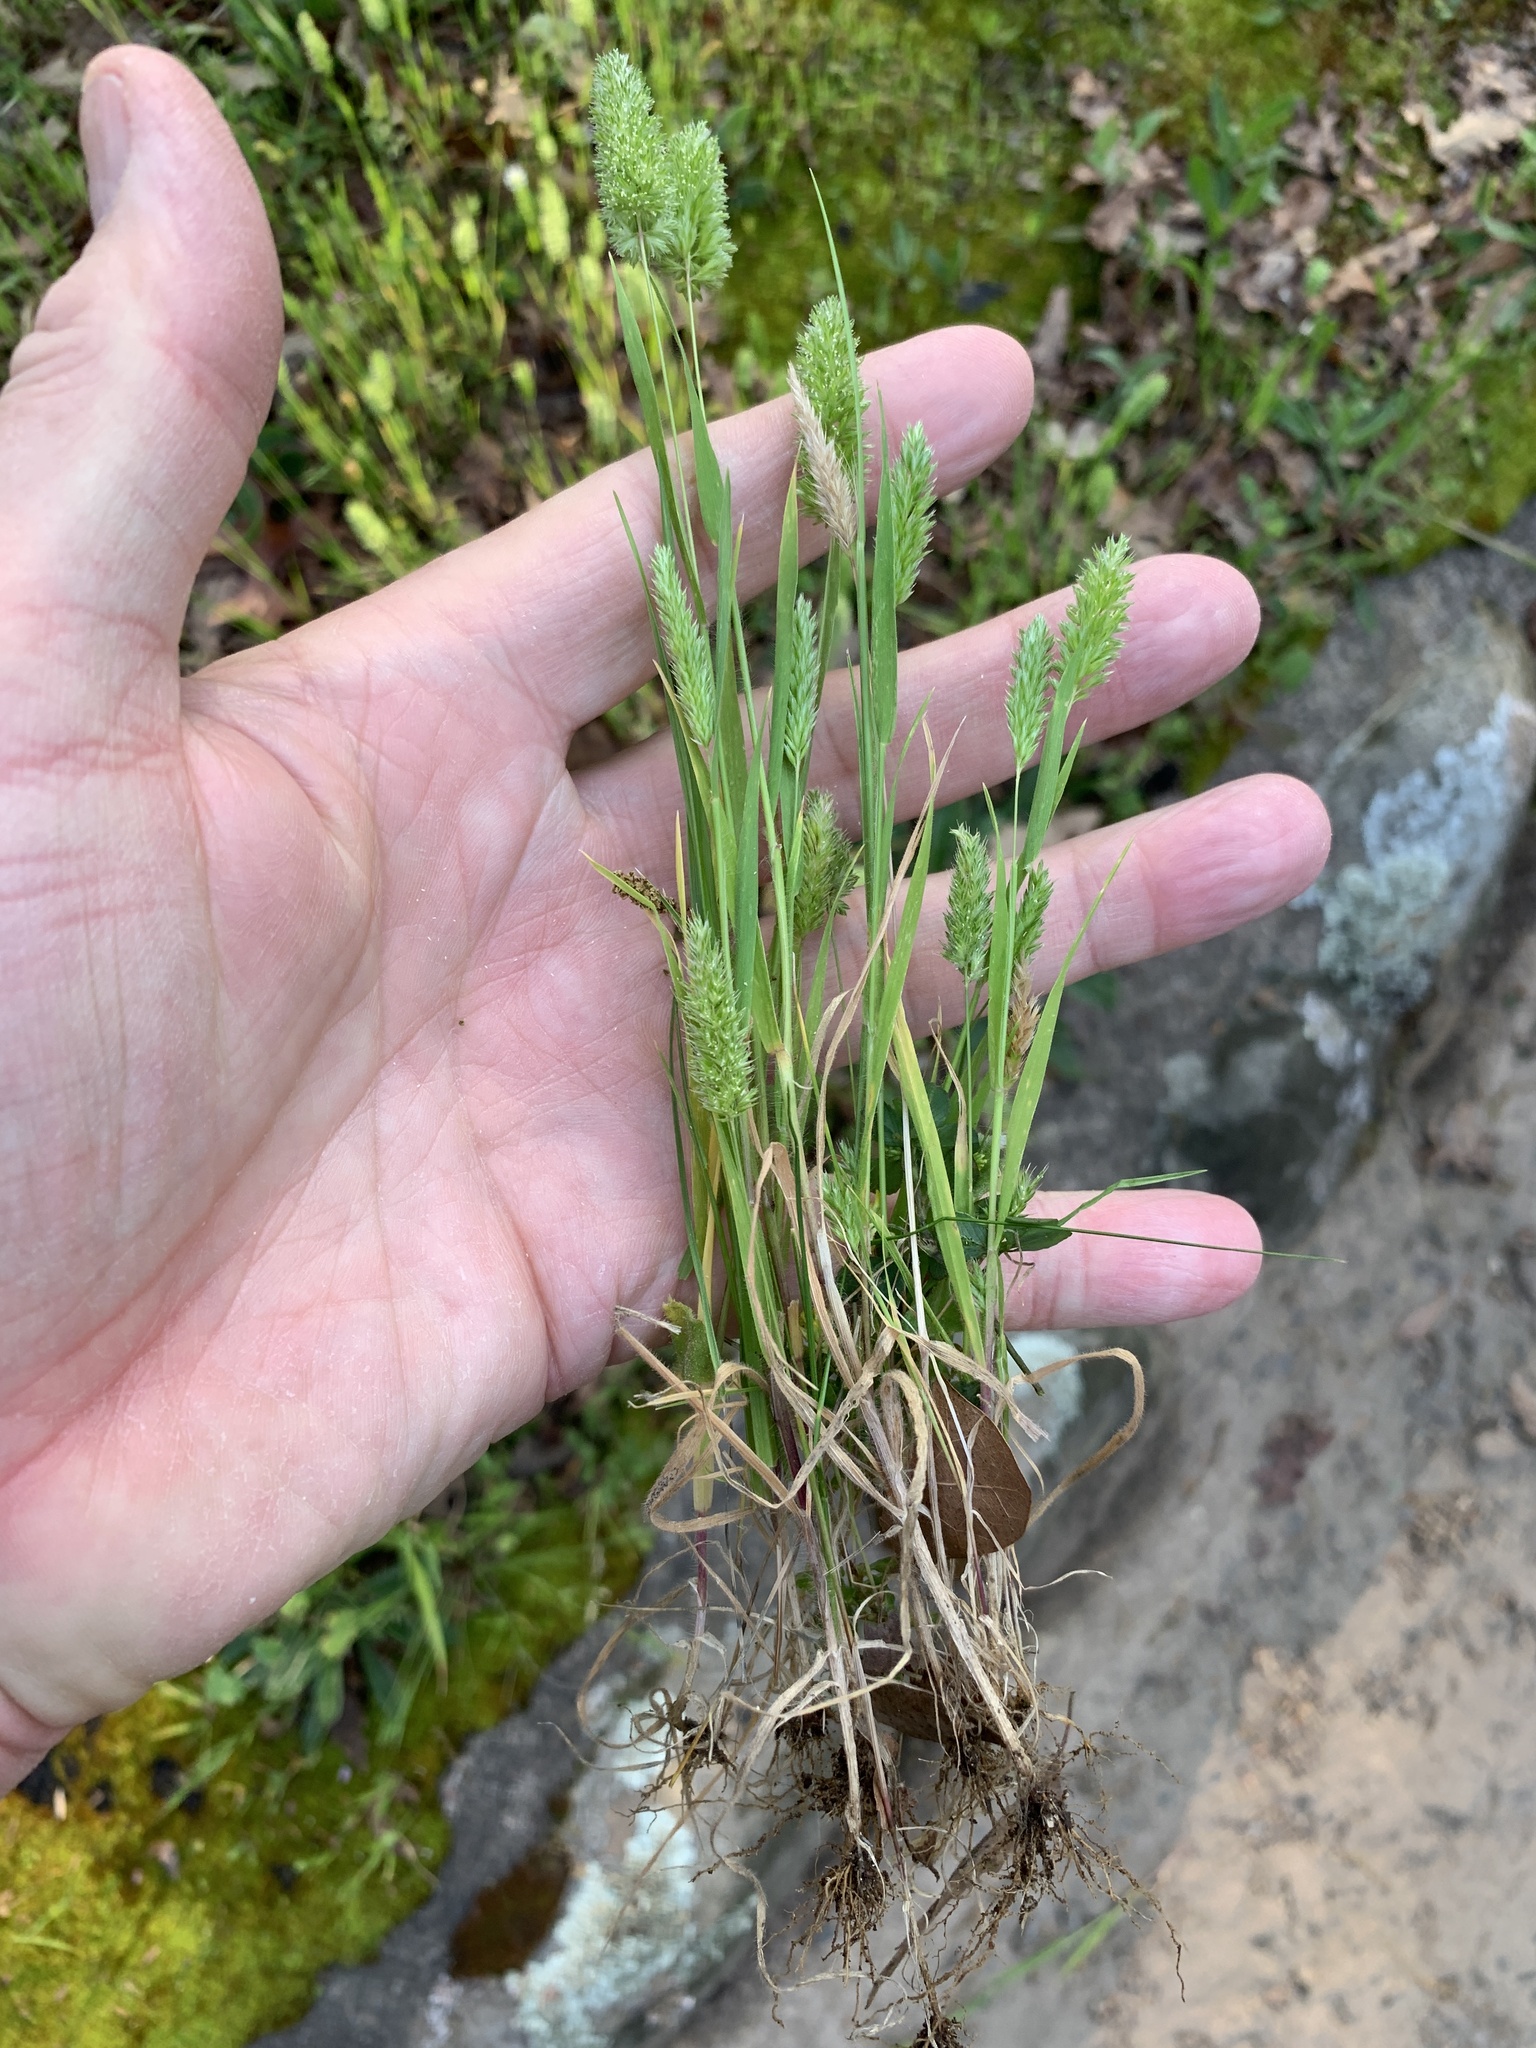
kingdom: Plantae
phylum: Tracheophyta
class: Liliopsida
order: Poales
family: Poaceae
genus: Rostraria
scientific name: Rostraria cristata
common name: Mediterranean hair-grass
